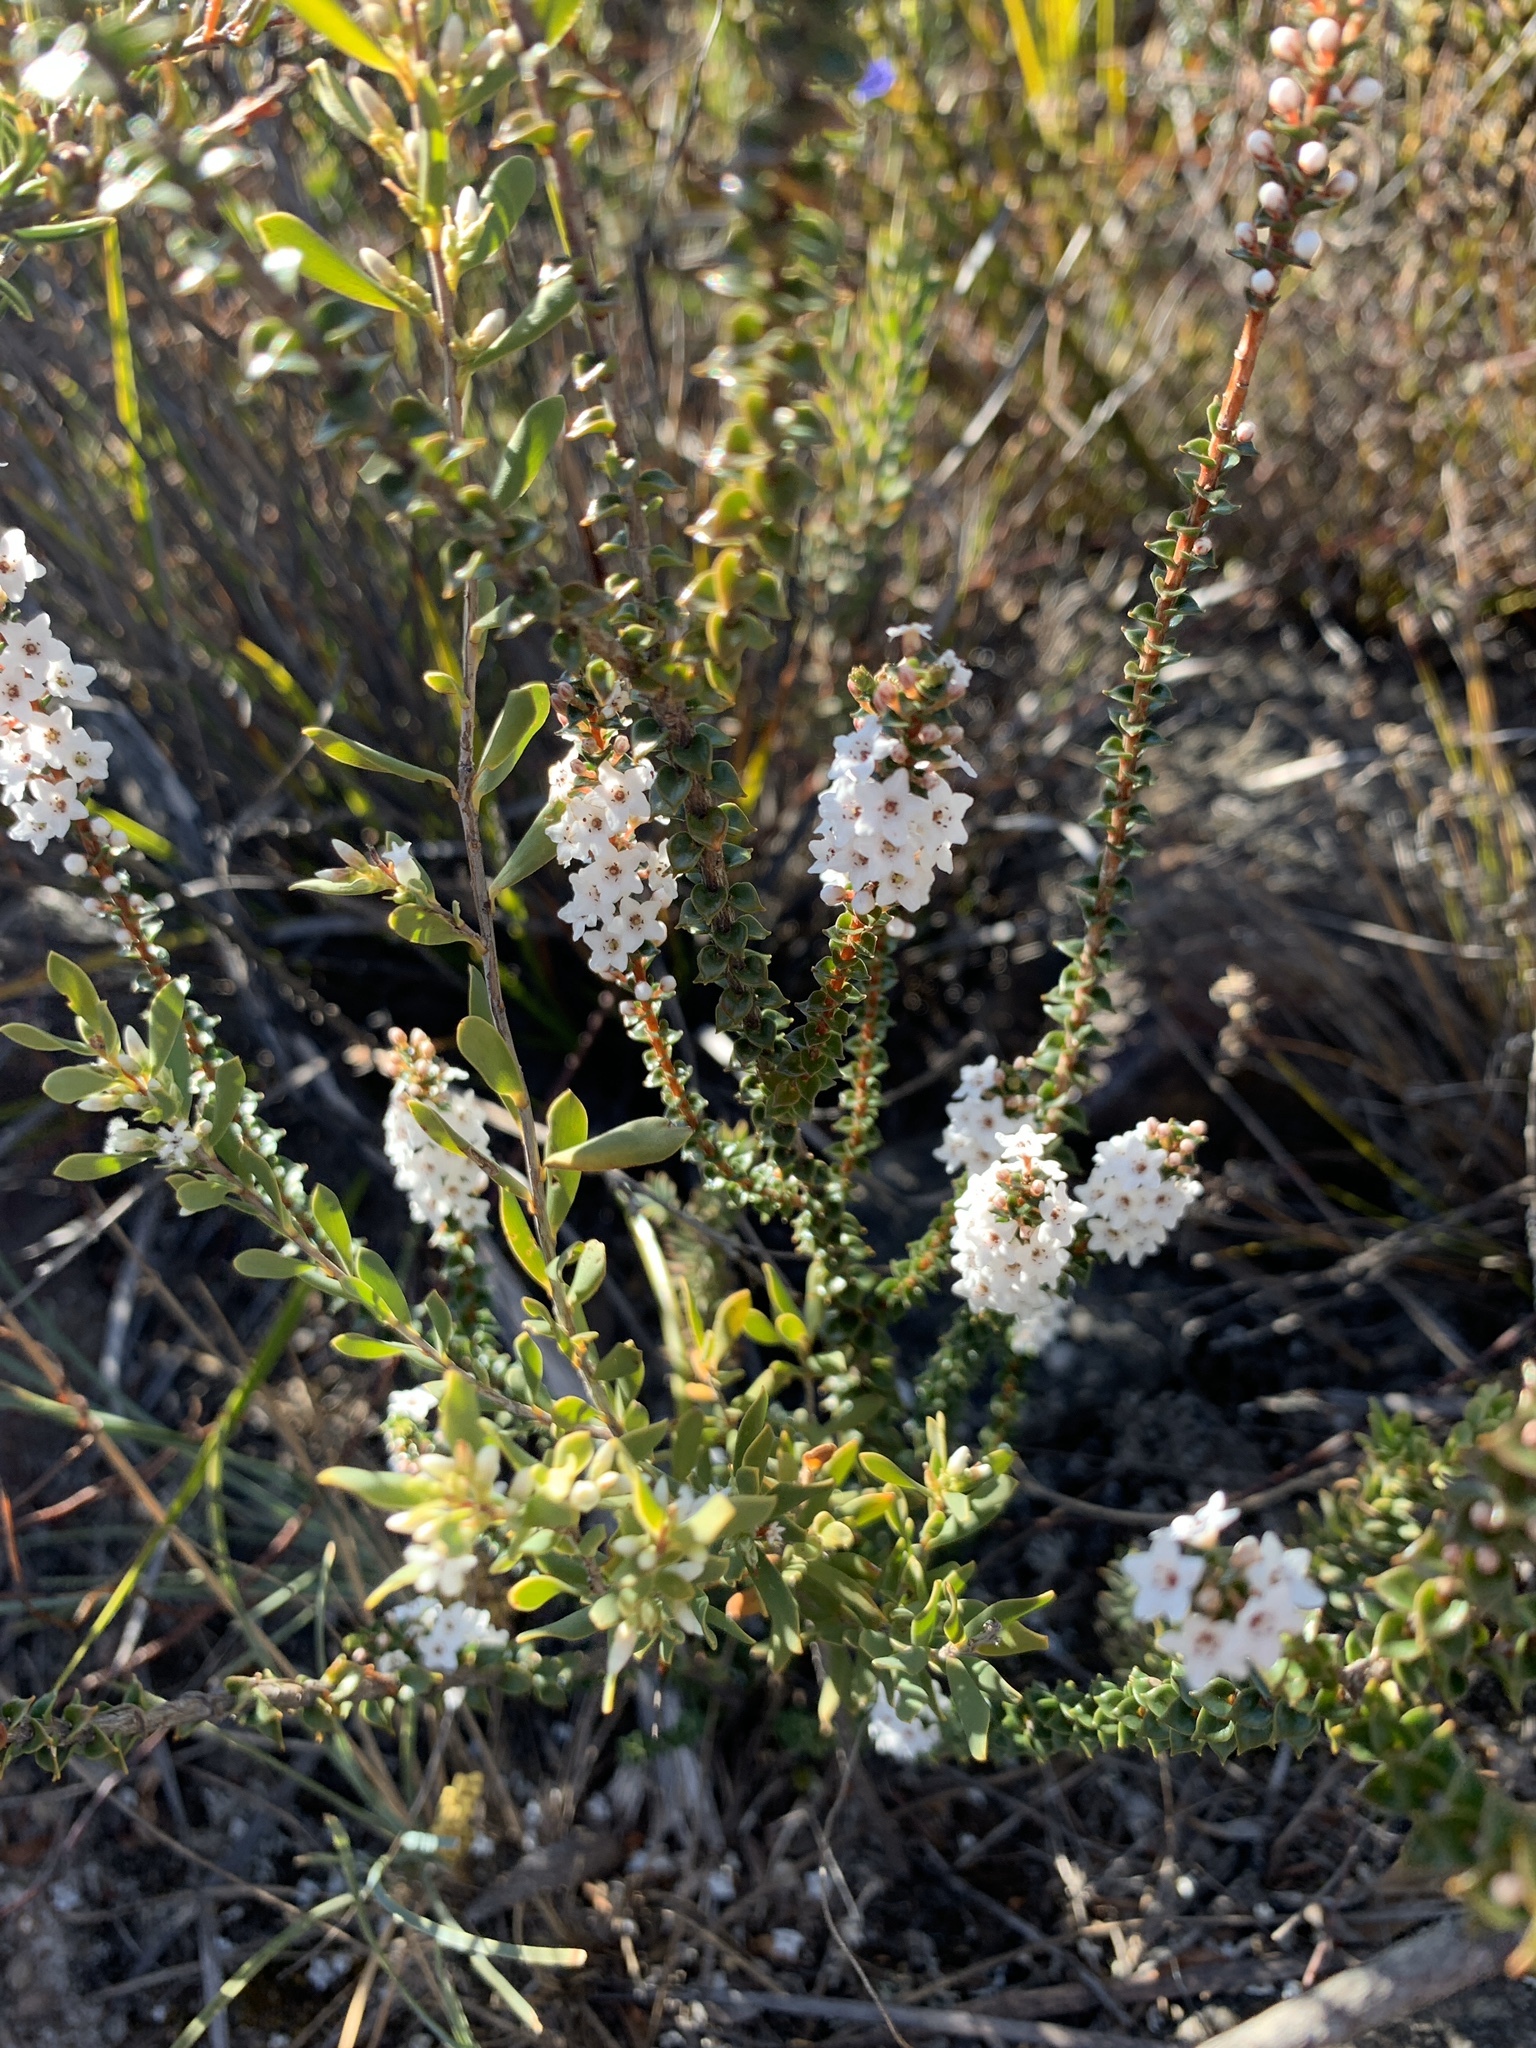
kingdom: Plantae
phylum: Tracheophyta
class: Magnoliopsida
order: Ericales
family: Ericaceae
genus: Epacris
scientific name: Epacris microphylla
